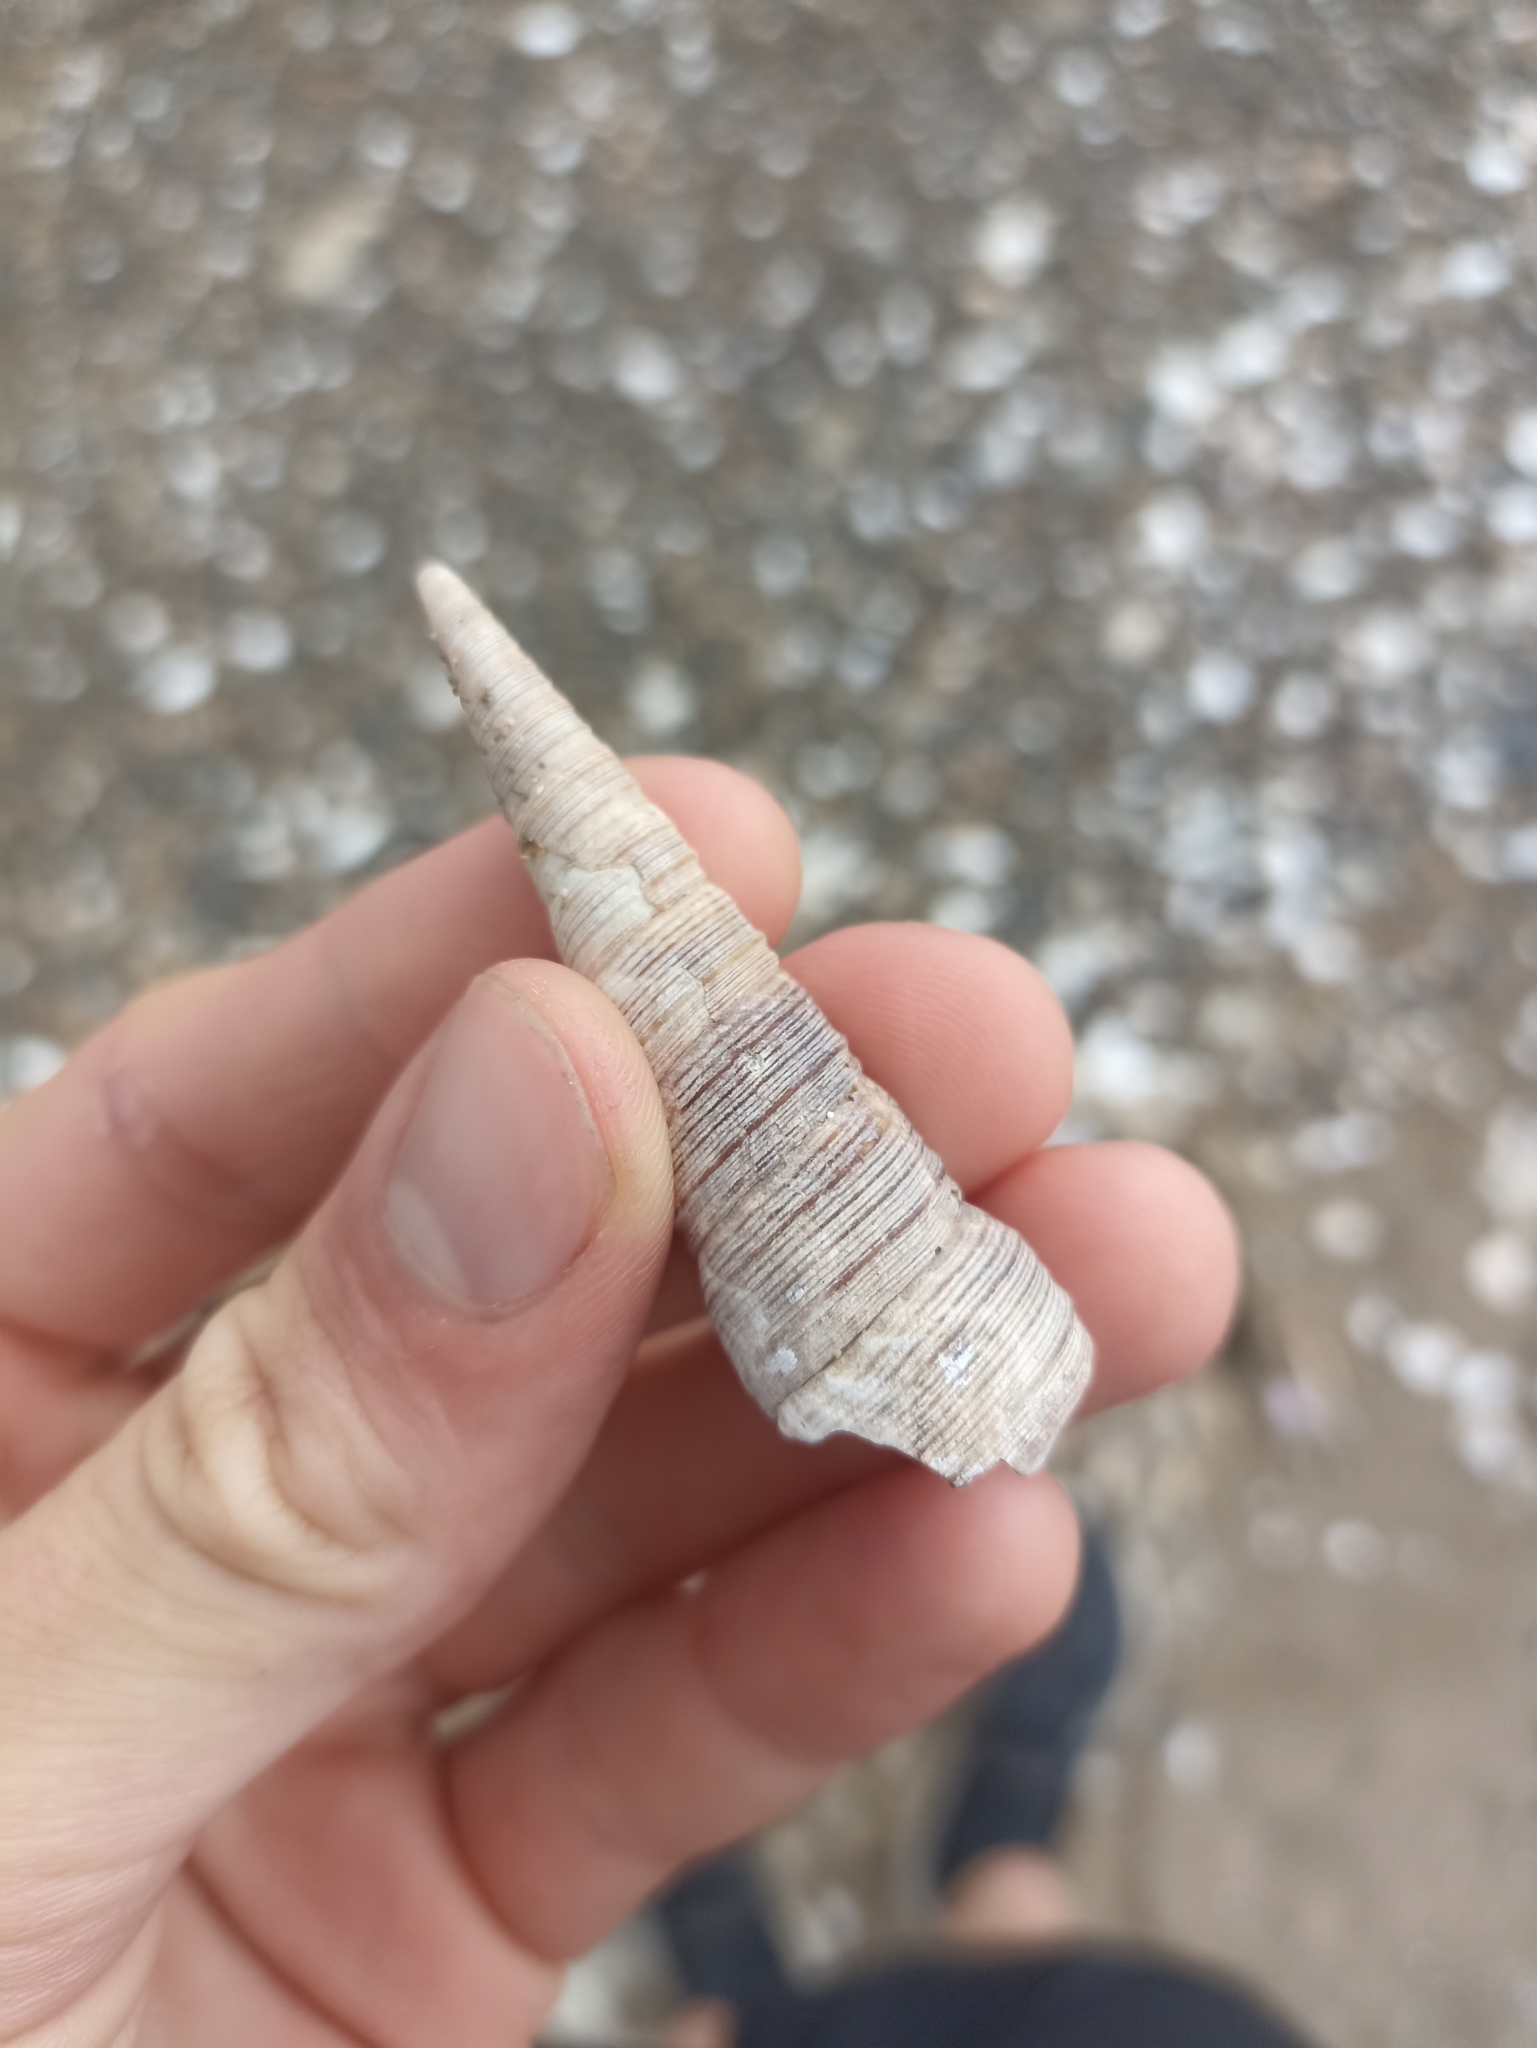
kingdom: Animalia
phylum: Mollusca
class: Gastropoda
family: Turritellidae
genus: Maoricolpus
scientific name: Maoricolpus roseus
